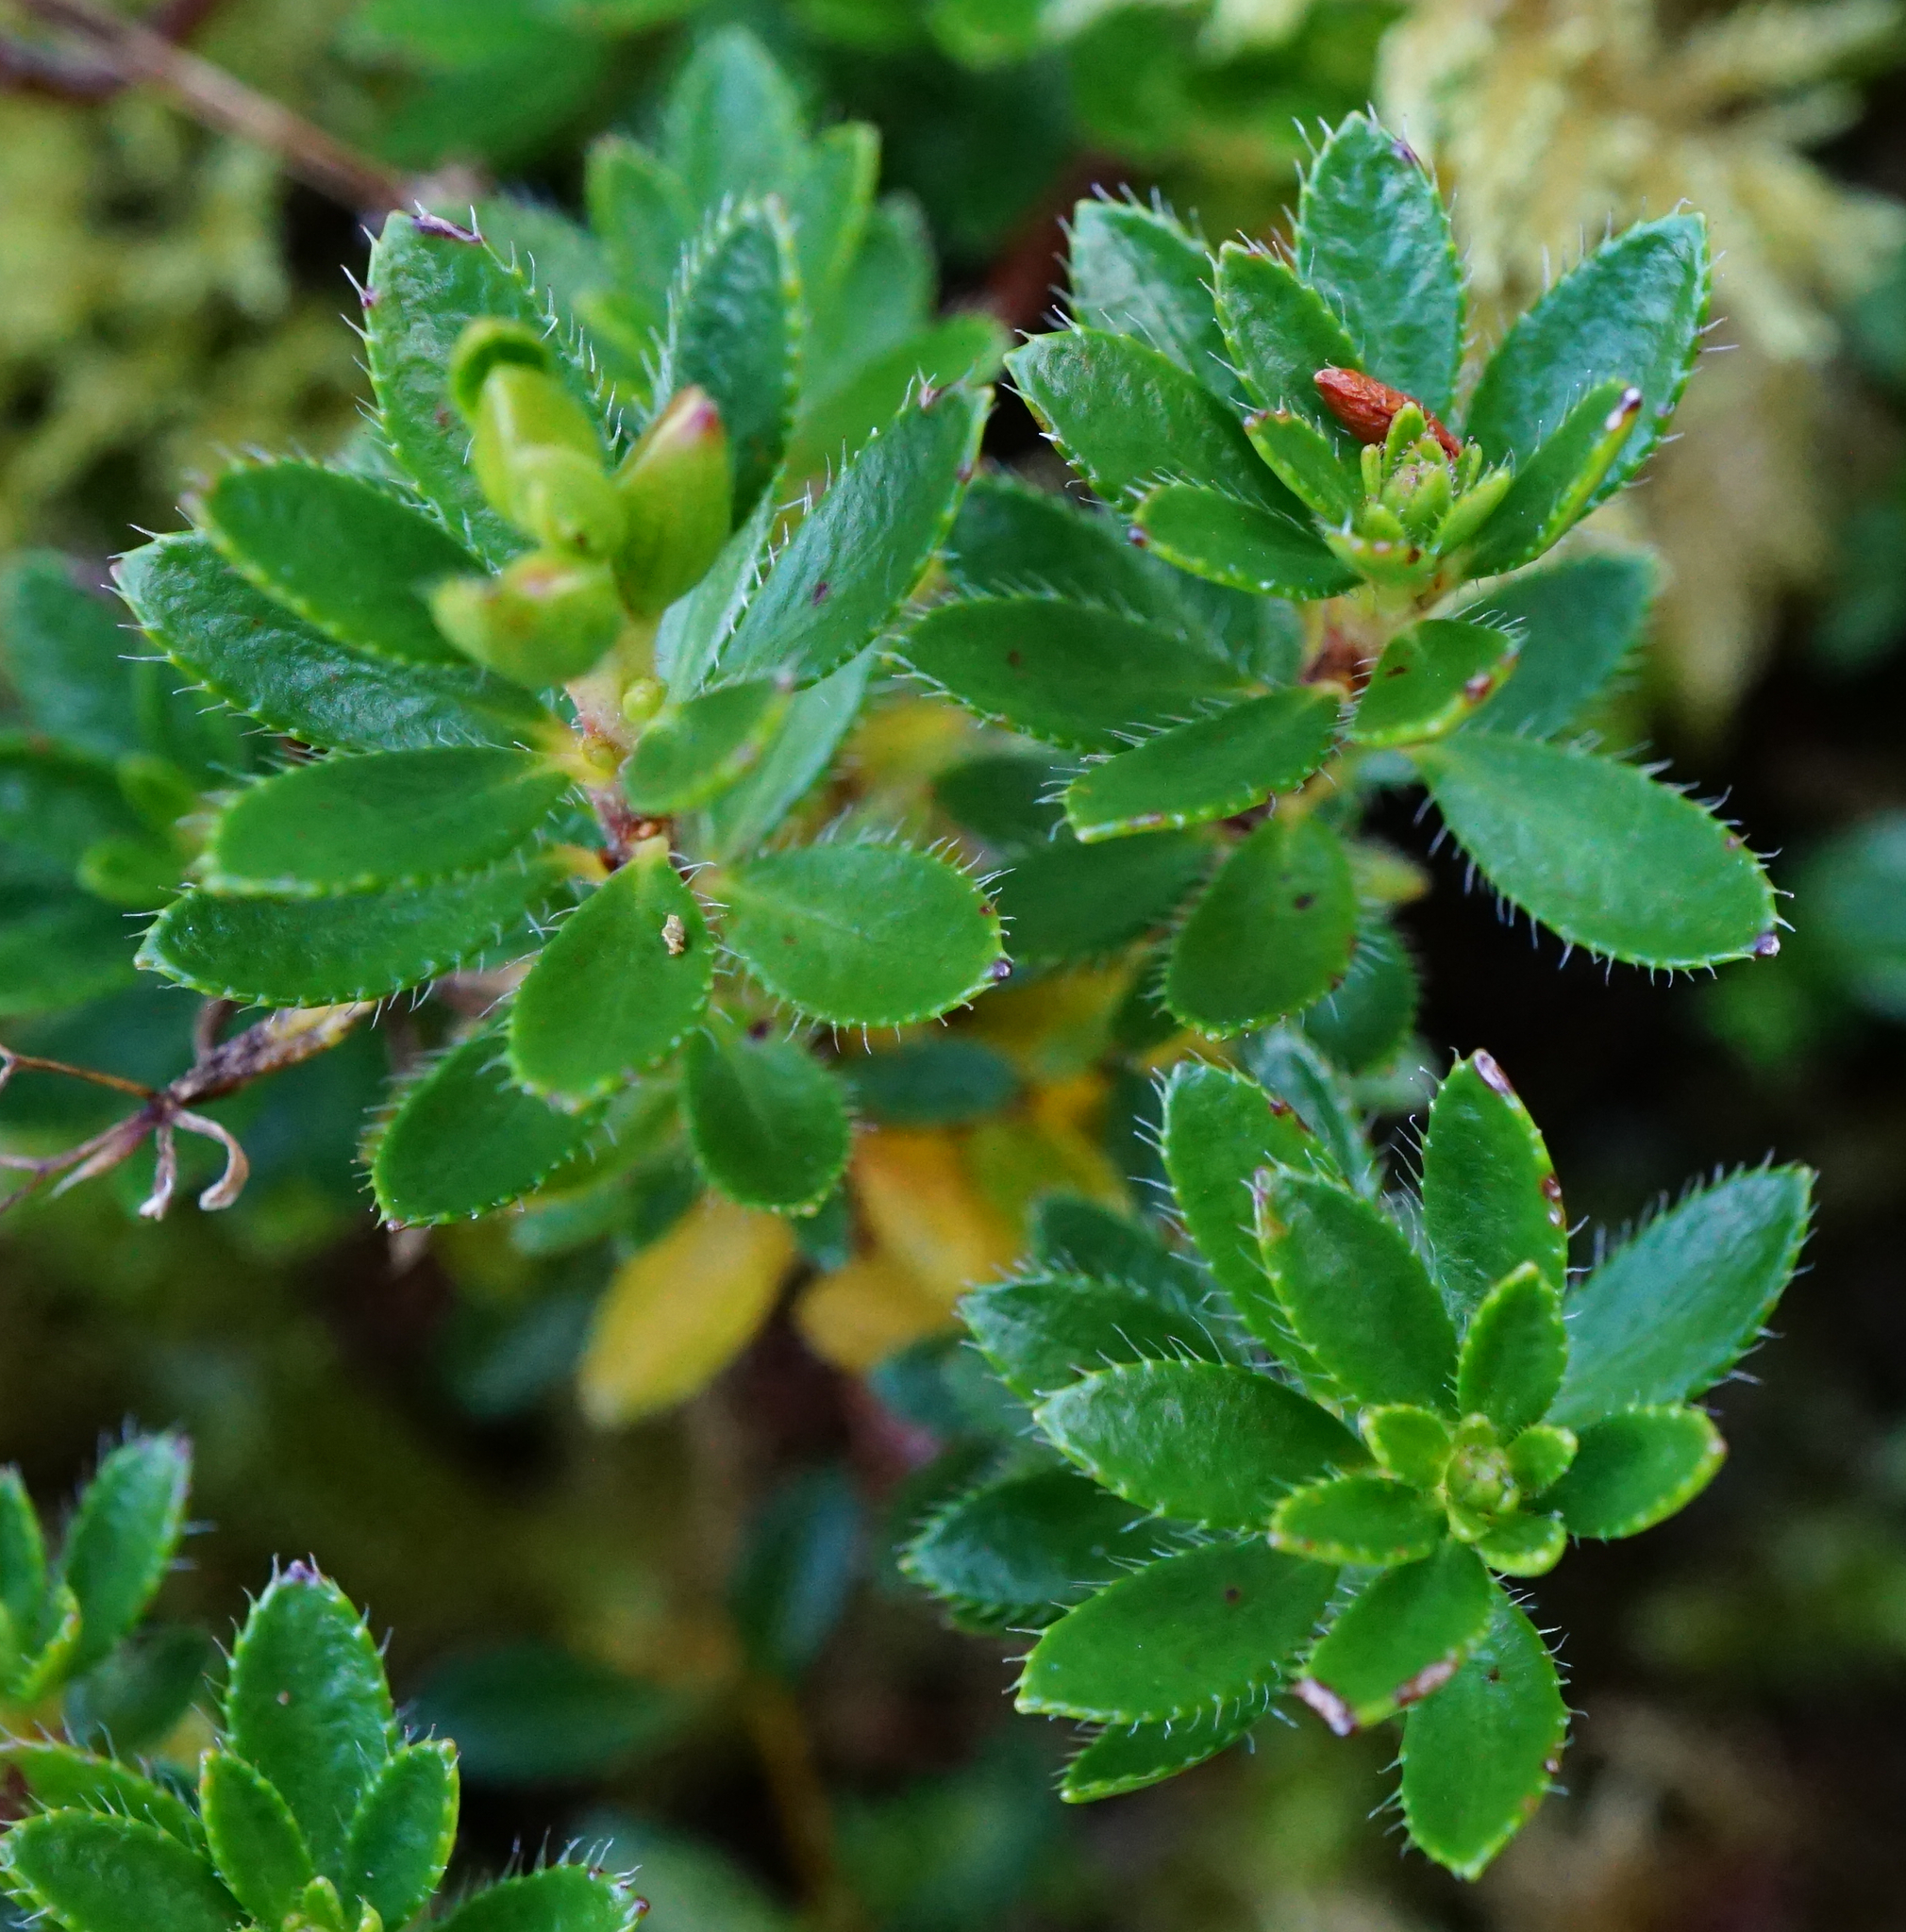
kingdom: Plantae
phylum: Tracheophyta
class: Magnoliopsida
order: Ericales
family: Ericaceae
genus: Rhodothamnus
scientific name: Rhodothamnus chamaecistus
